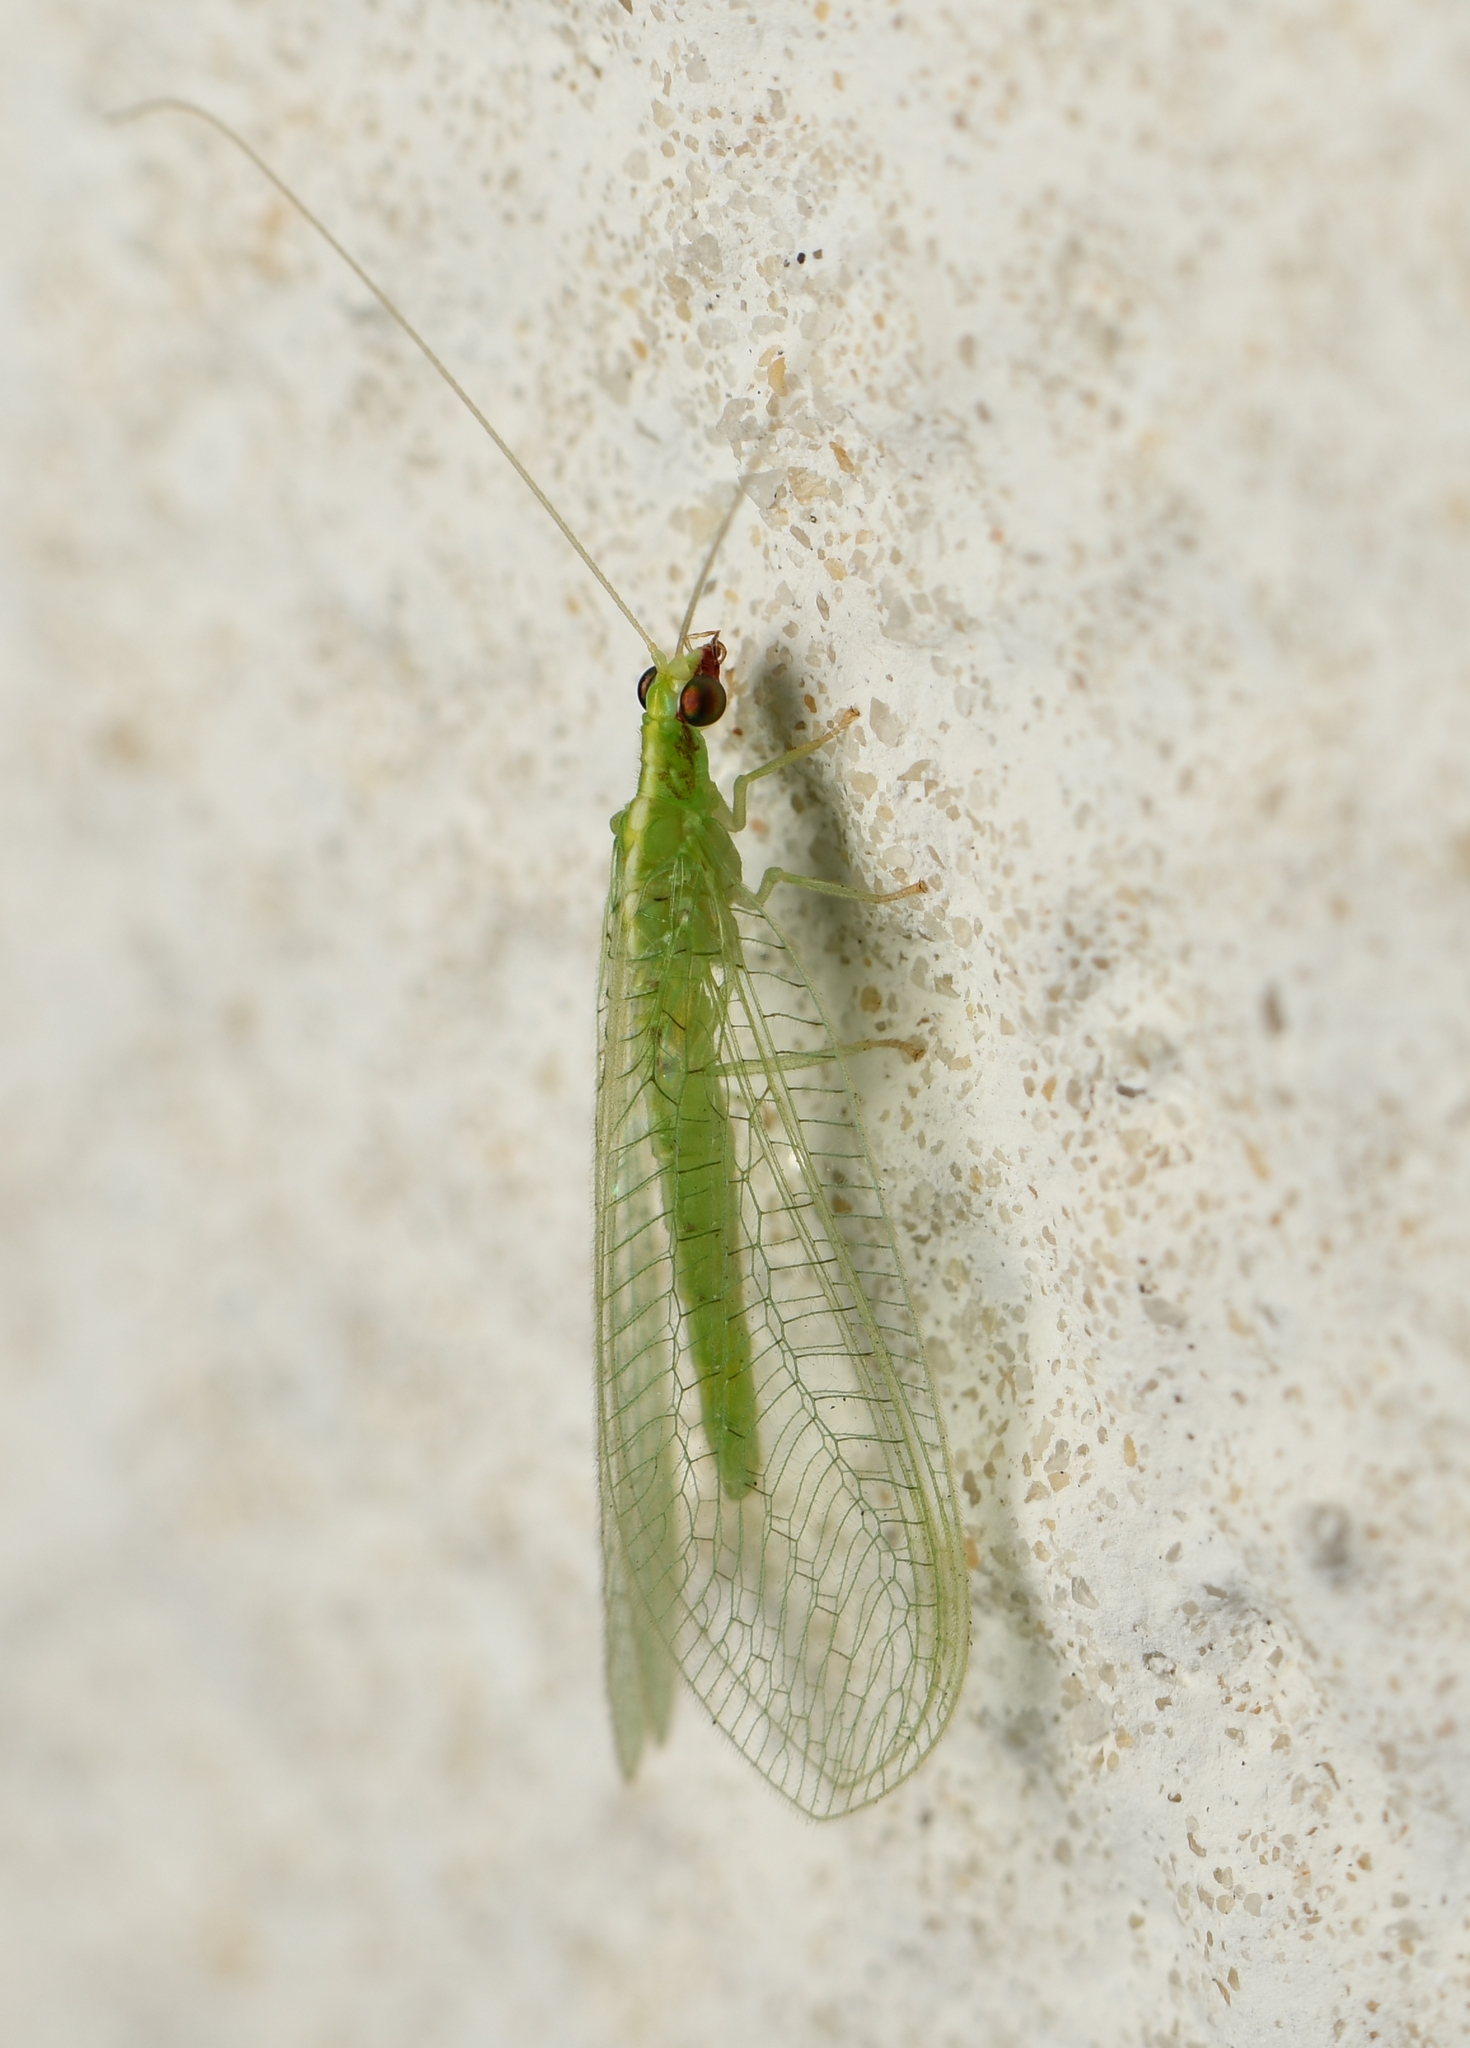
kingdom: Animalia
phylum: Arthropoda
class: Insecta
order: Neuroptera
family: Chrysopidae
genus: Chrysoperla
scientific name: Chrysoperla rufilabris
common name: Red-lipped green lacewing
